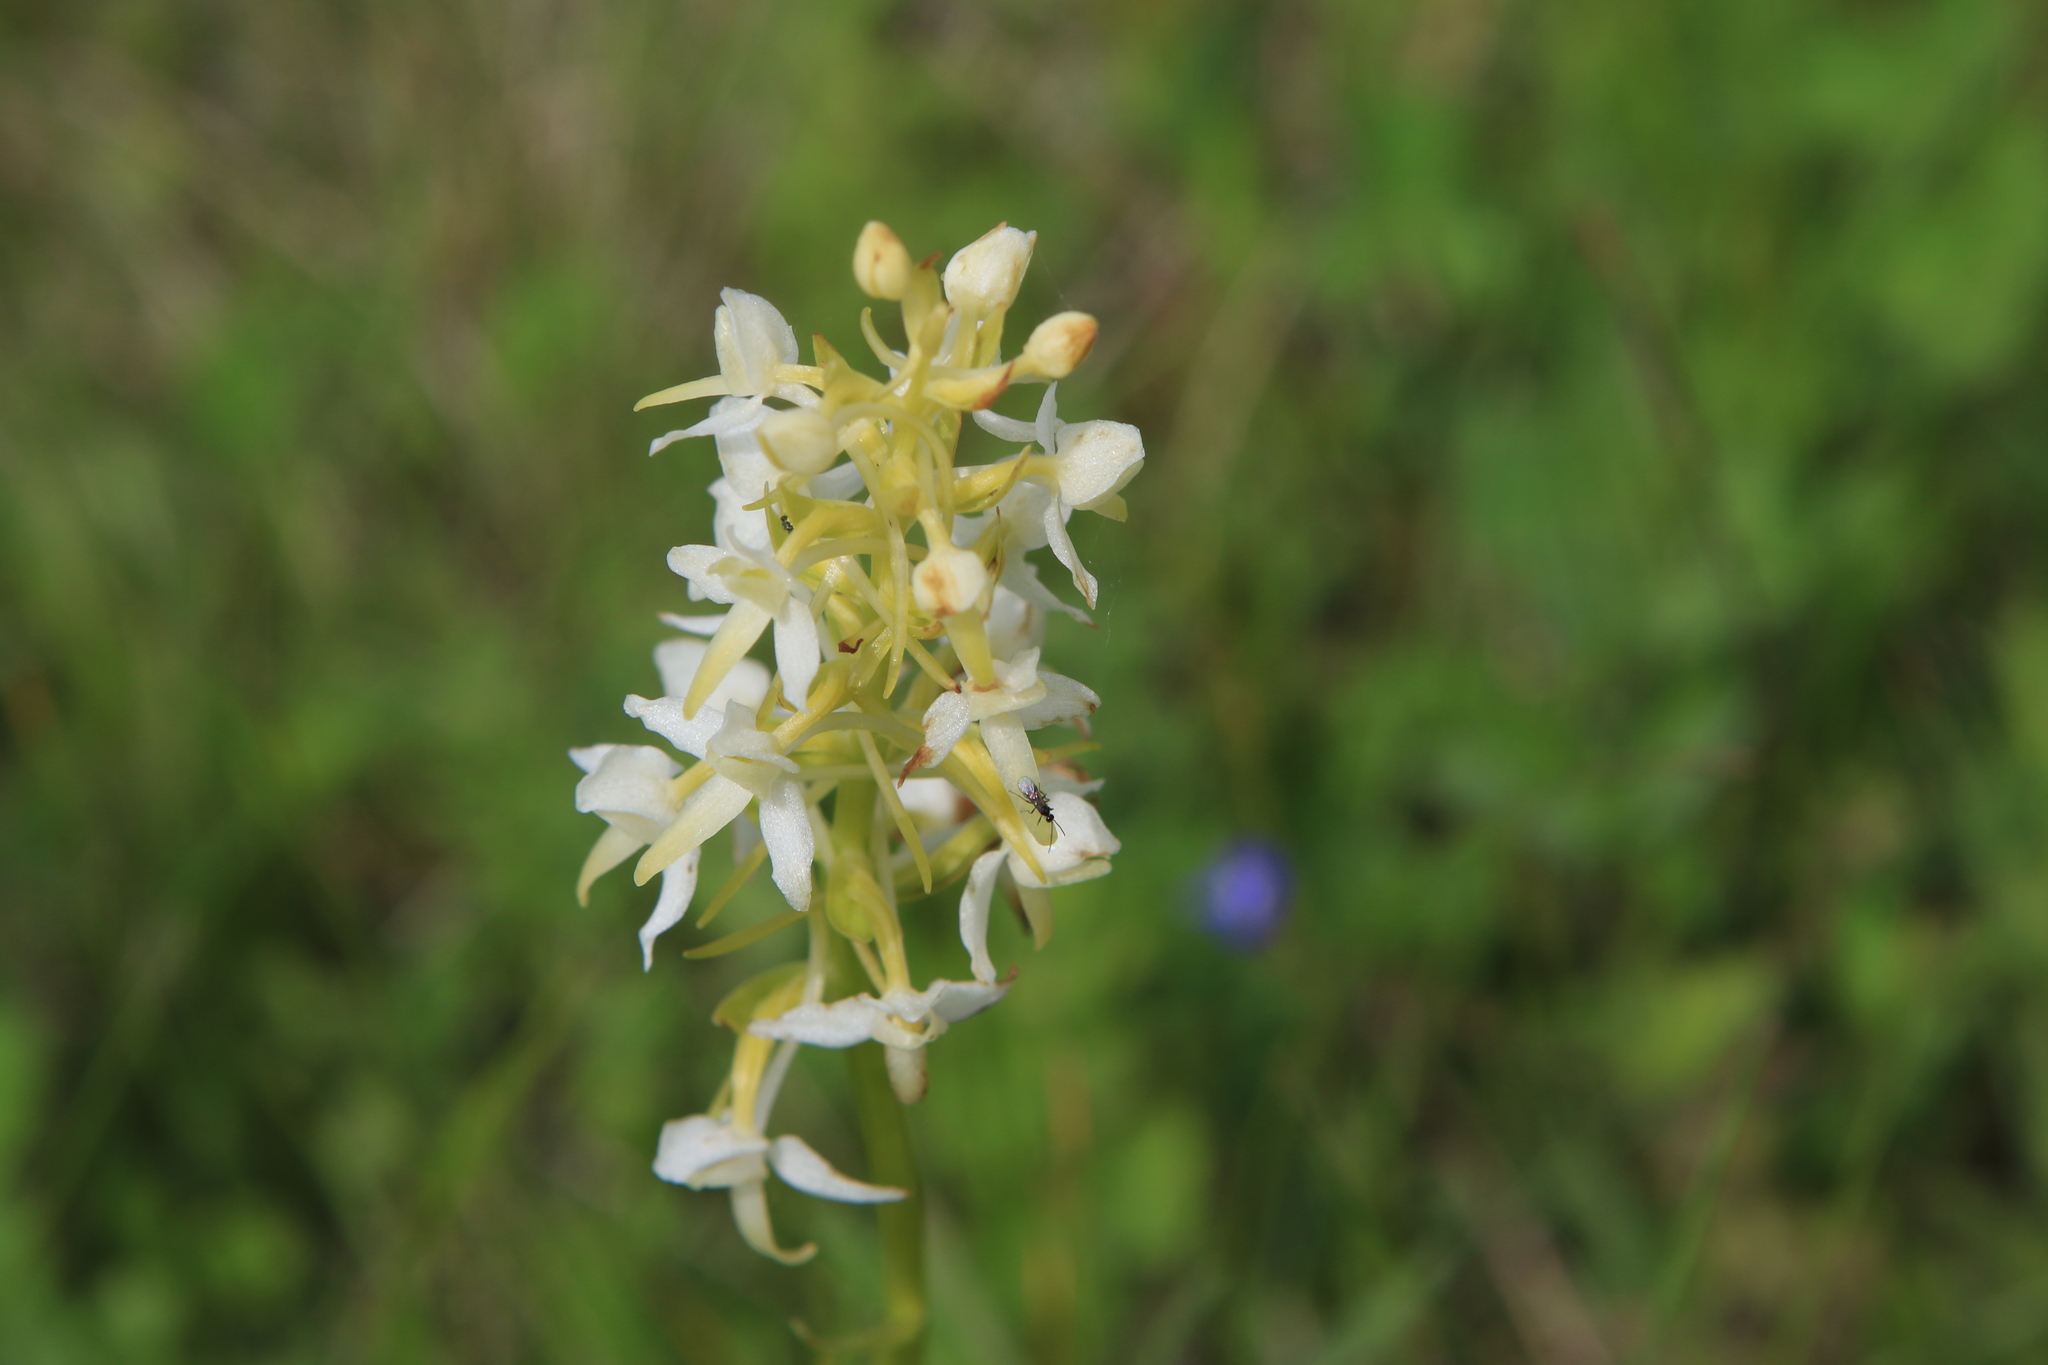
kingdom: Plantae
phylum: Tracheophyta
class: Liliopsida
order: Asparagales
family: Orchidaceae
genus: Platanthera
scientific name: Platanthera bifolia
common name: Lesser butterfly-orchid
